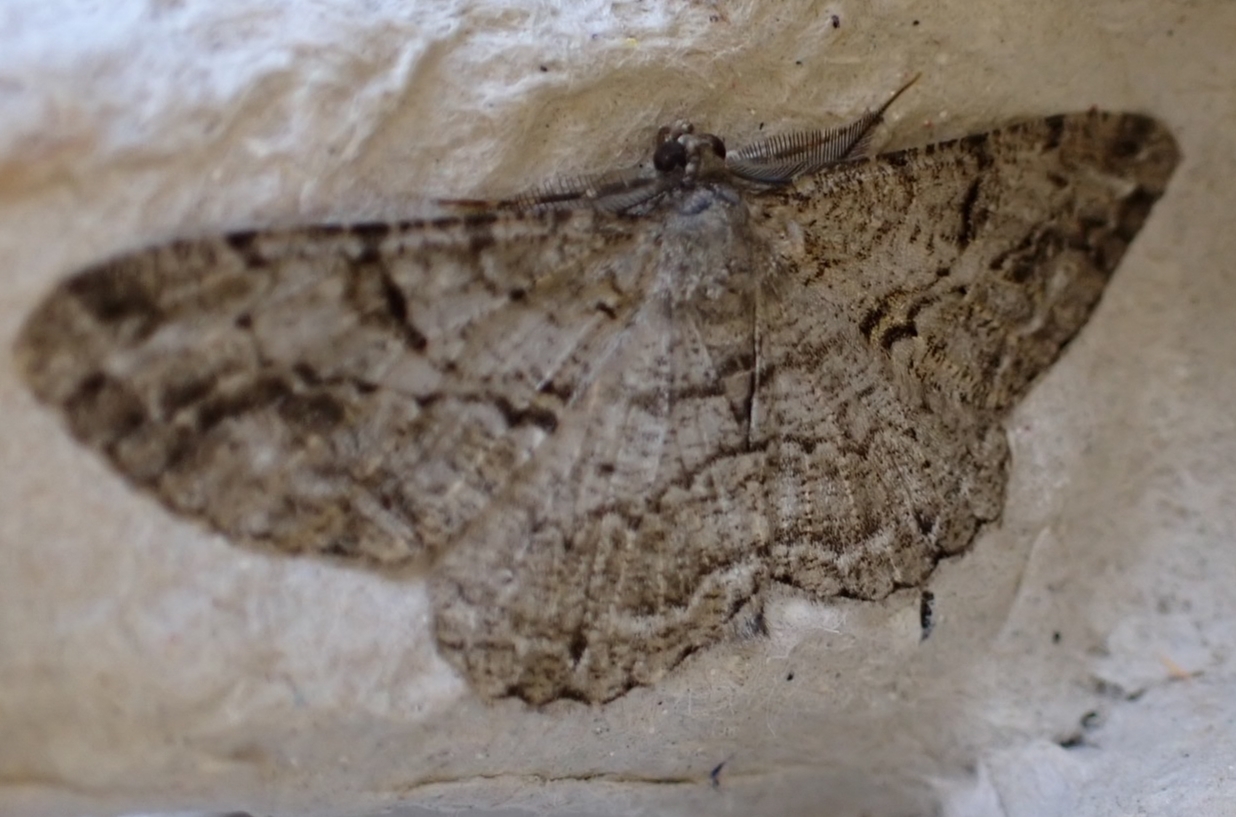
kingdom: Animalia
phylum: Arthropoda
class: Insecta
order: Lepidoptera
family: Geometridae
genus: Peribatodes
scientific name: Peribatodes rhomboidaria
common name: Willow beauty
